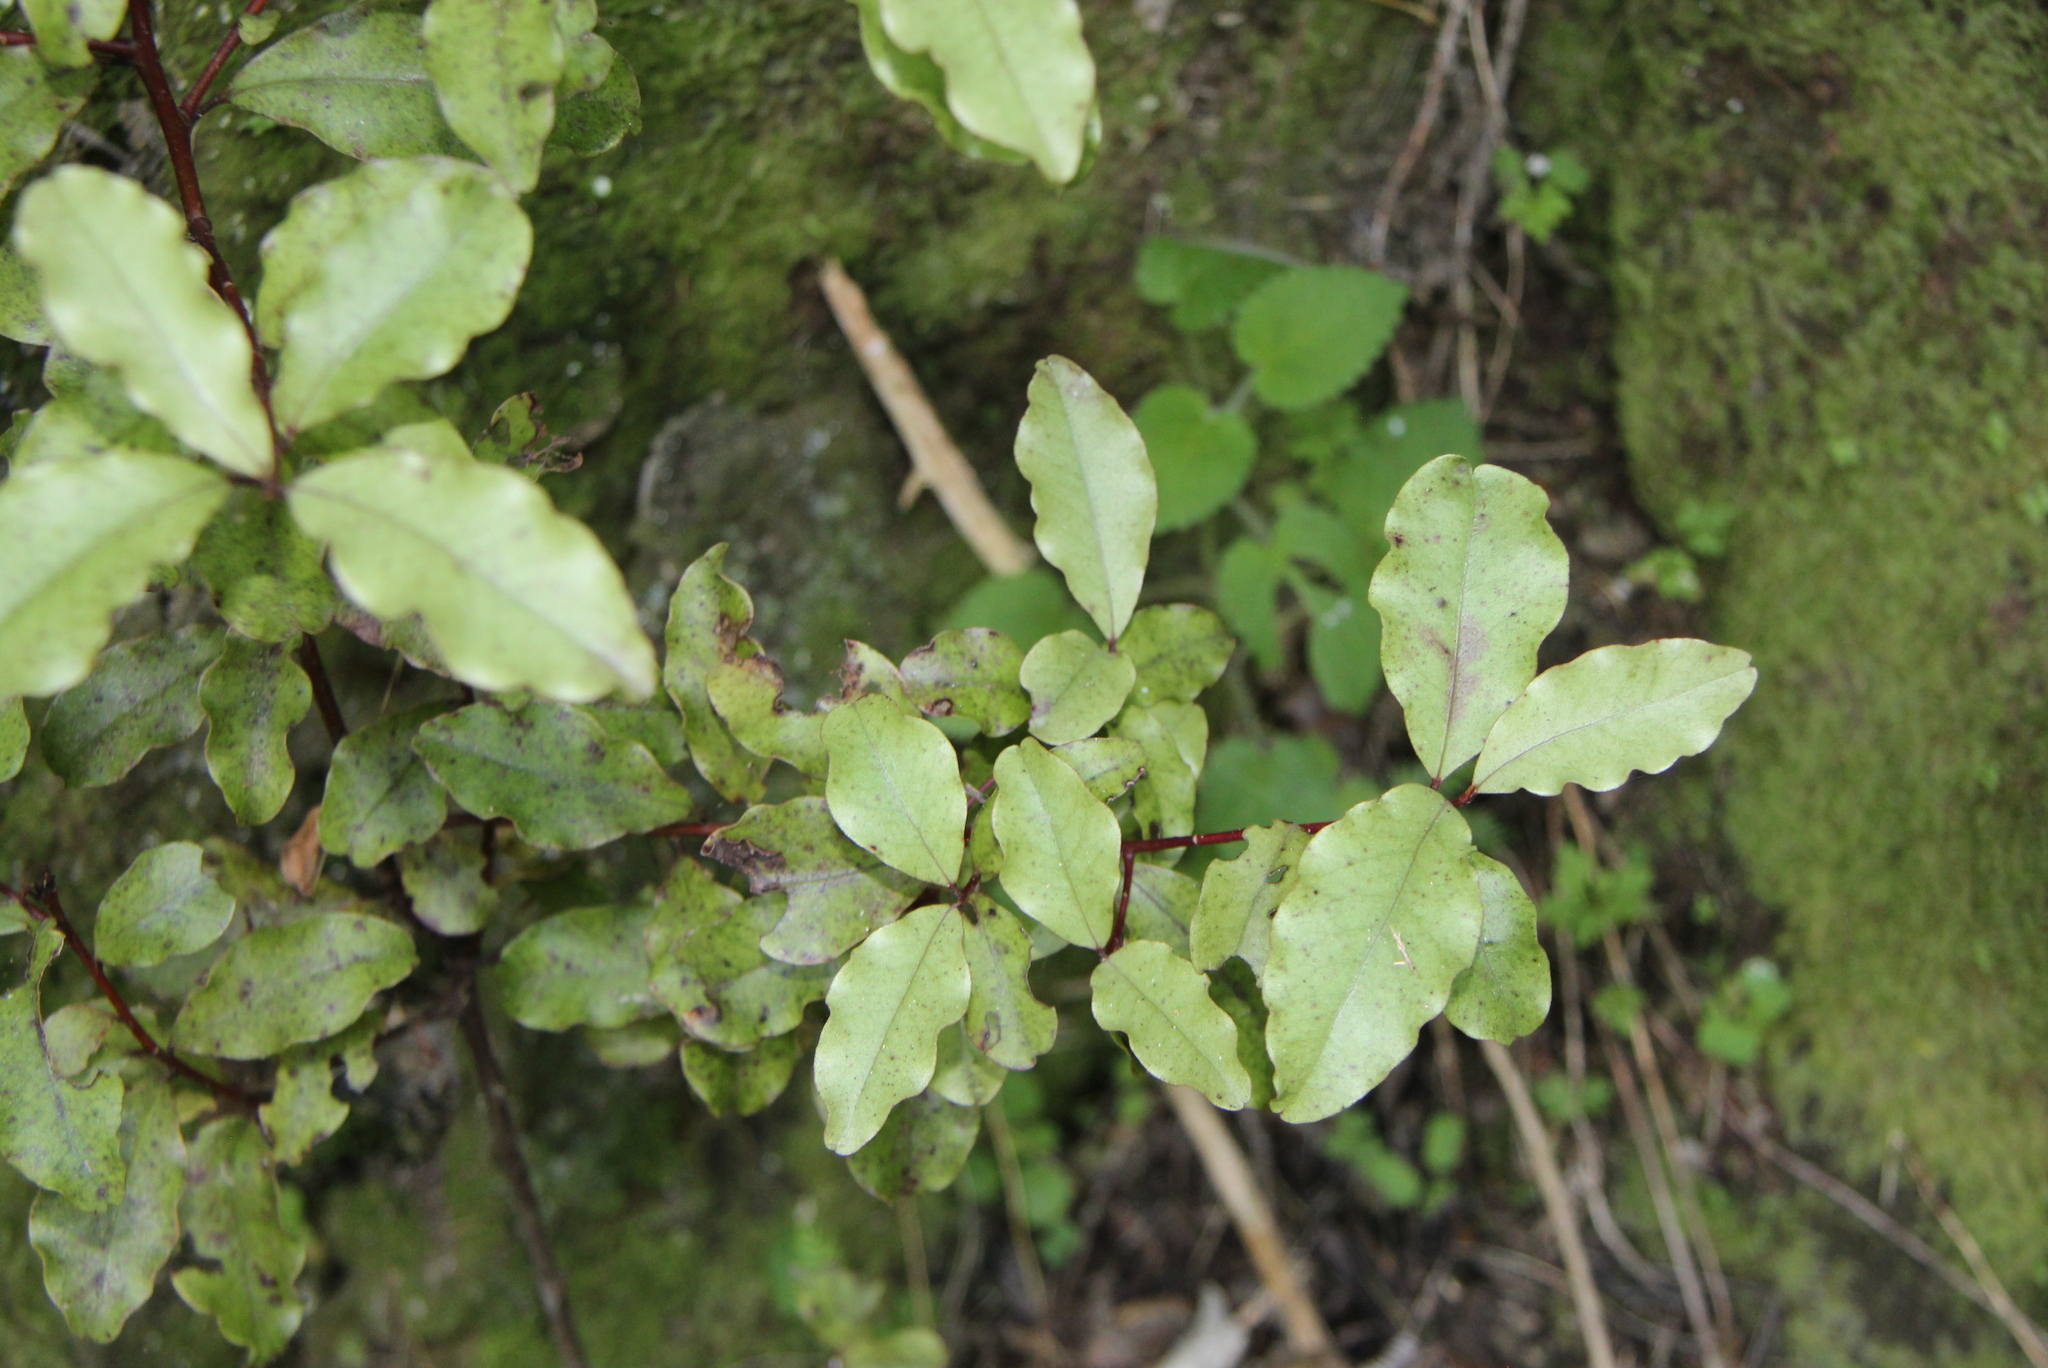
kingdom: Plantae
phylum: Tracheophyta
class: Magnoliopsida
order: Ericales
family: Primulaceae
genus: Myrsine
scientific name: Myrsine australis
